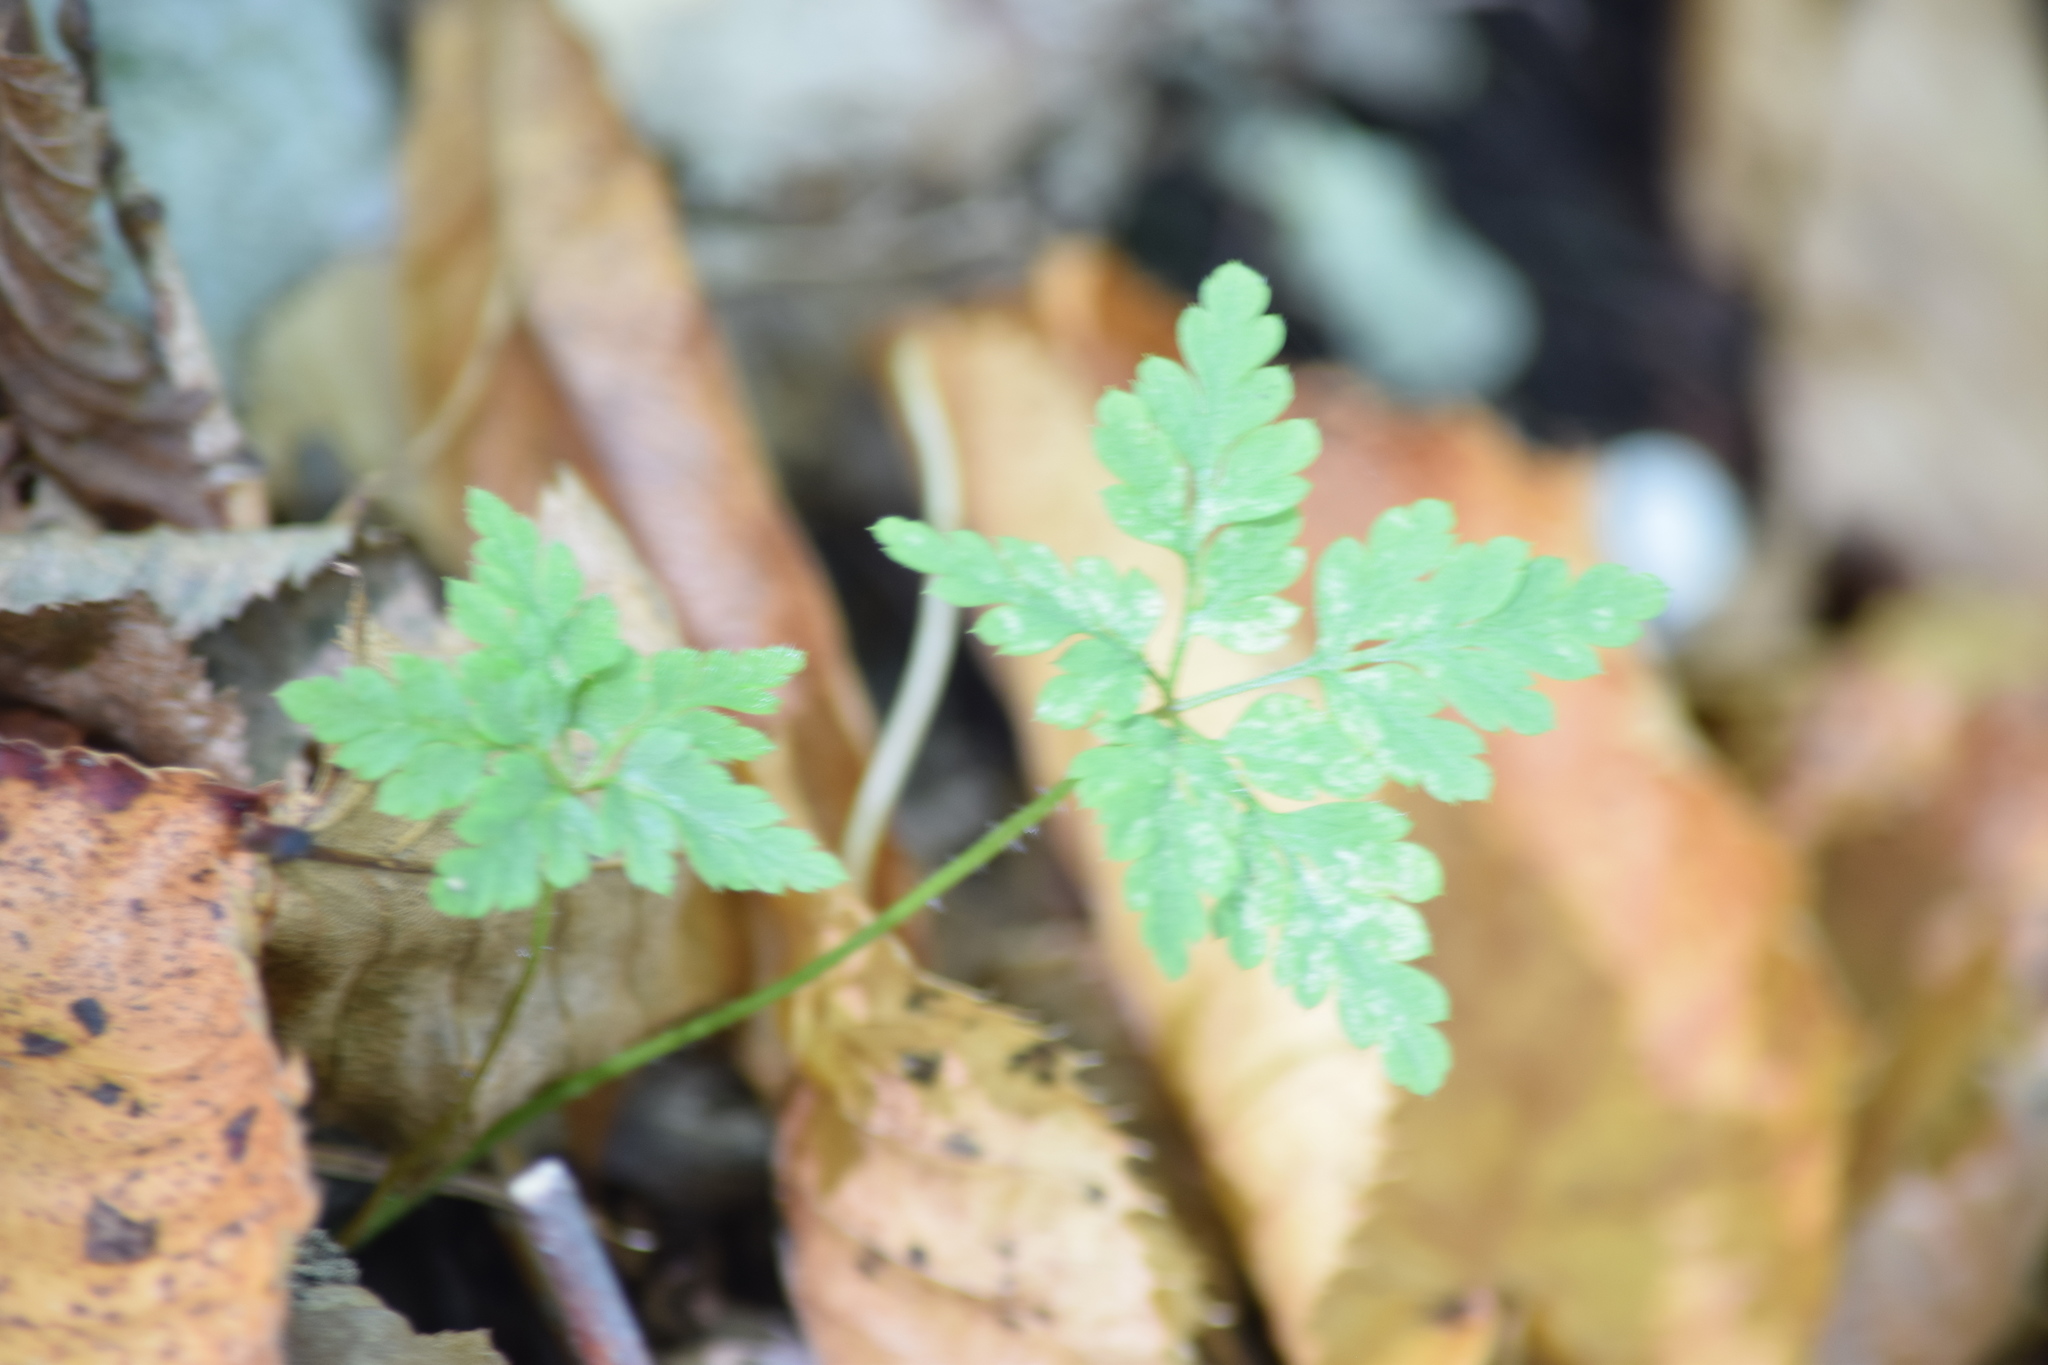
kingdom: Plantae
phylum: Tracheophyta
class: Magnoliopsida
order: Geraniales
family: Geraniaceae
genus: Geranium
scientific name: Geranium robertianum
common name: Herb-robert
